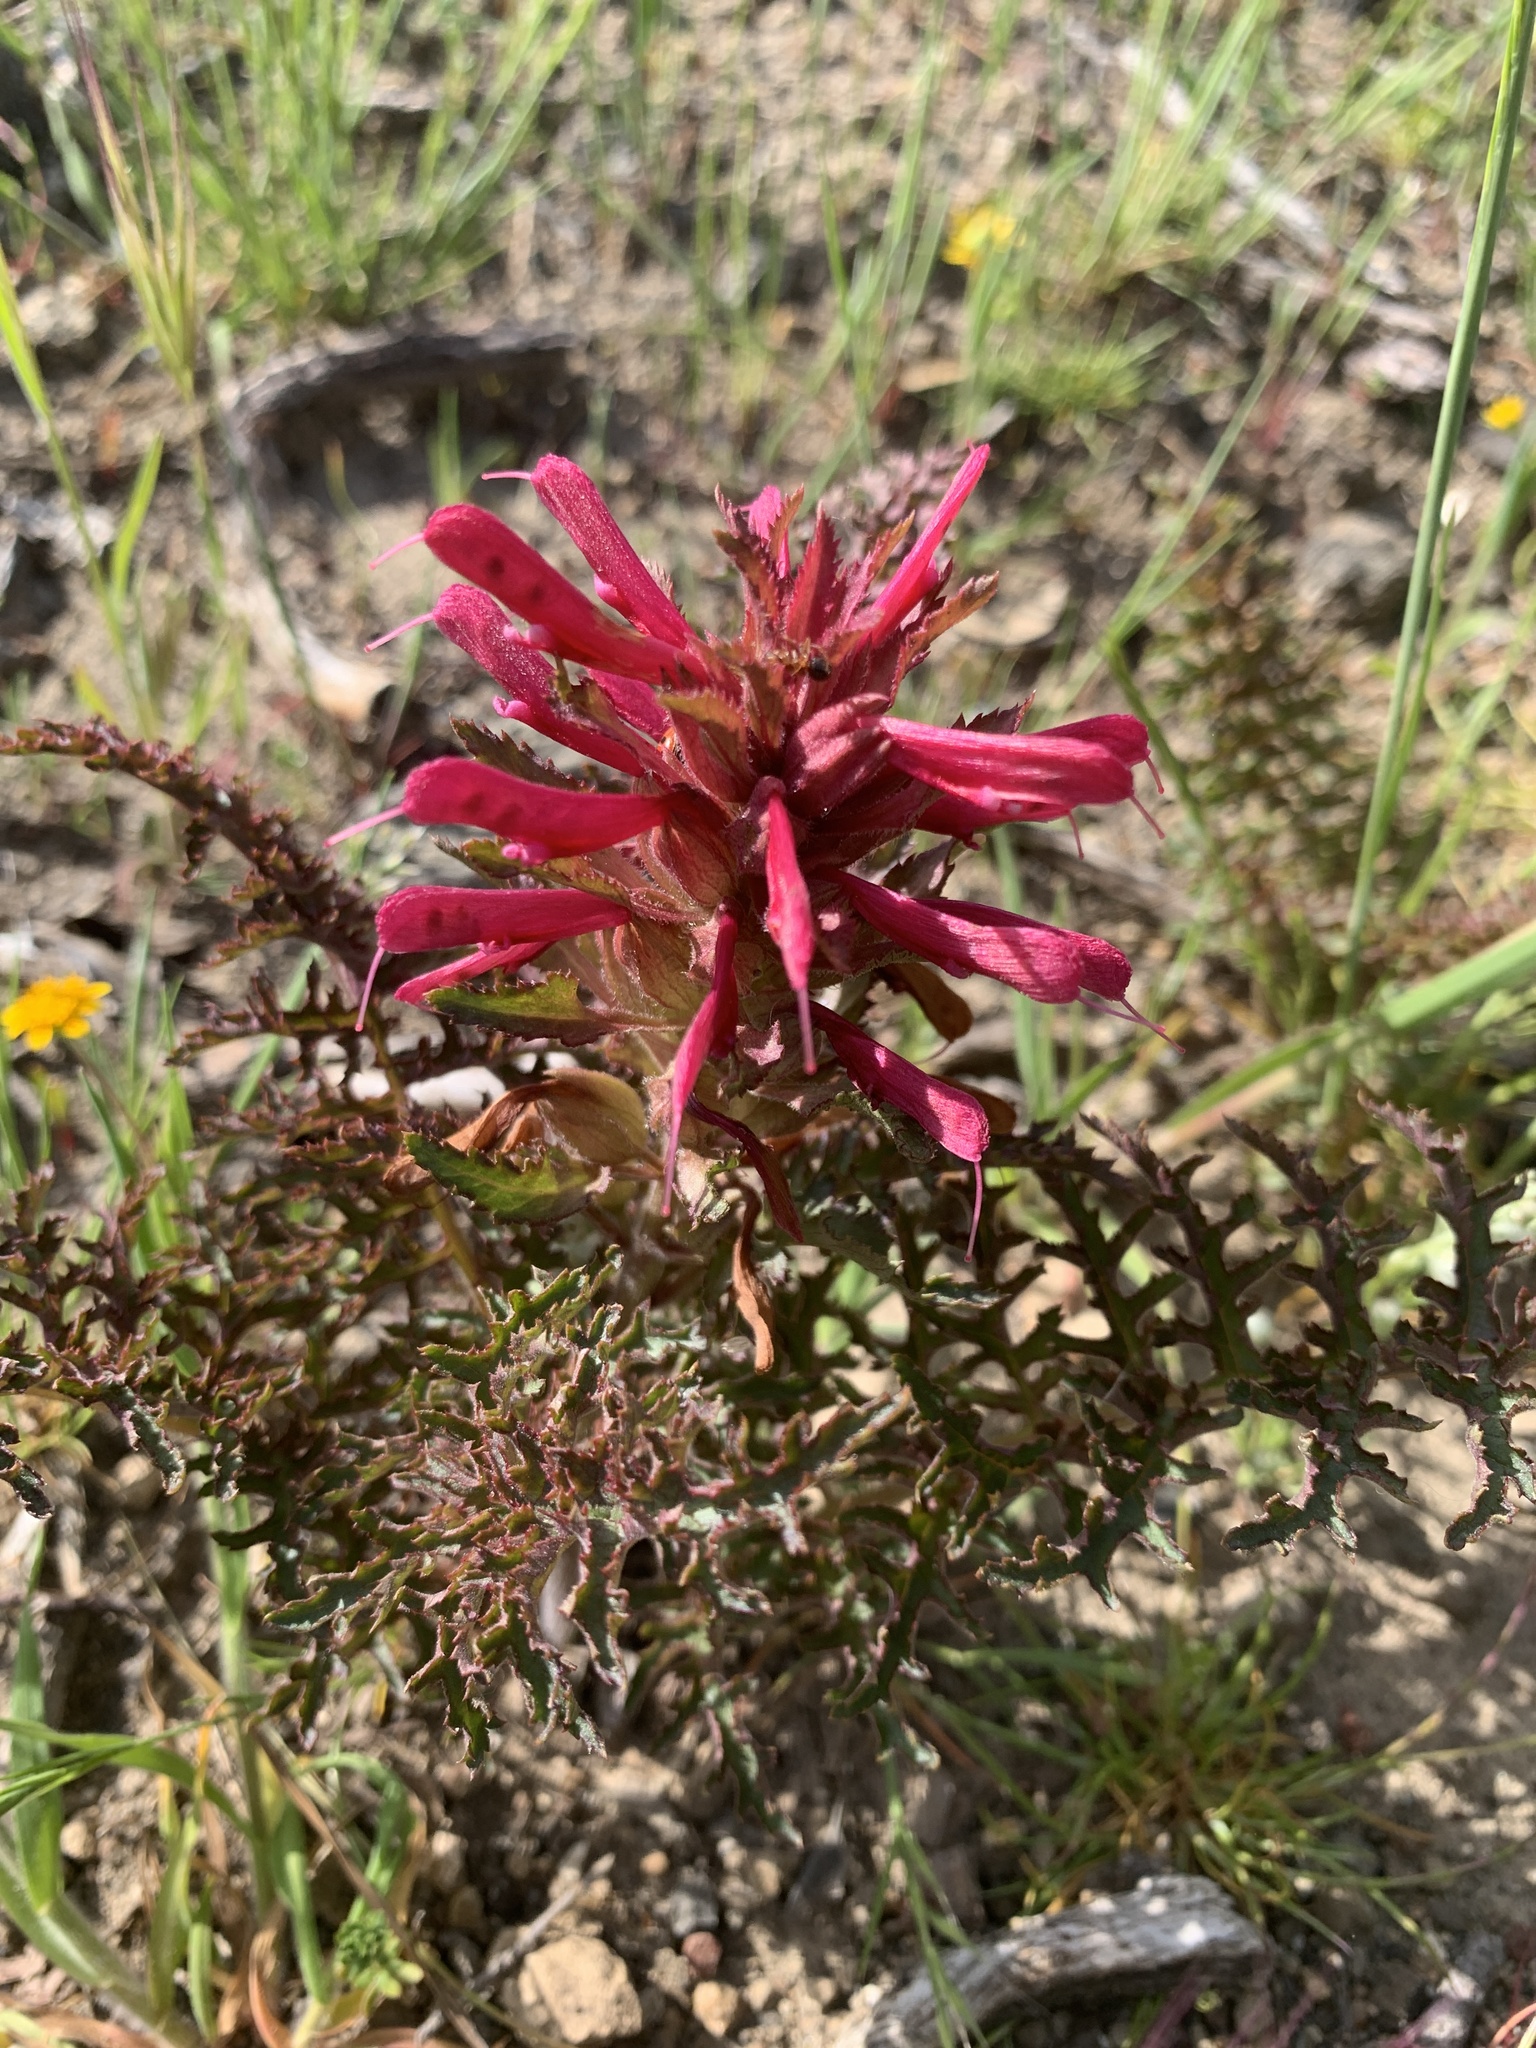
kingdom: Plantae
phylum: Tracheophyta
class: Magnoliopsida
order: Lamiales
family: Orobanchaceae
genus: Pedicularis
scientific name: Pedicularis densiflora
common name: Indian warrior
